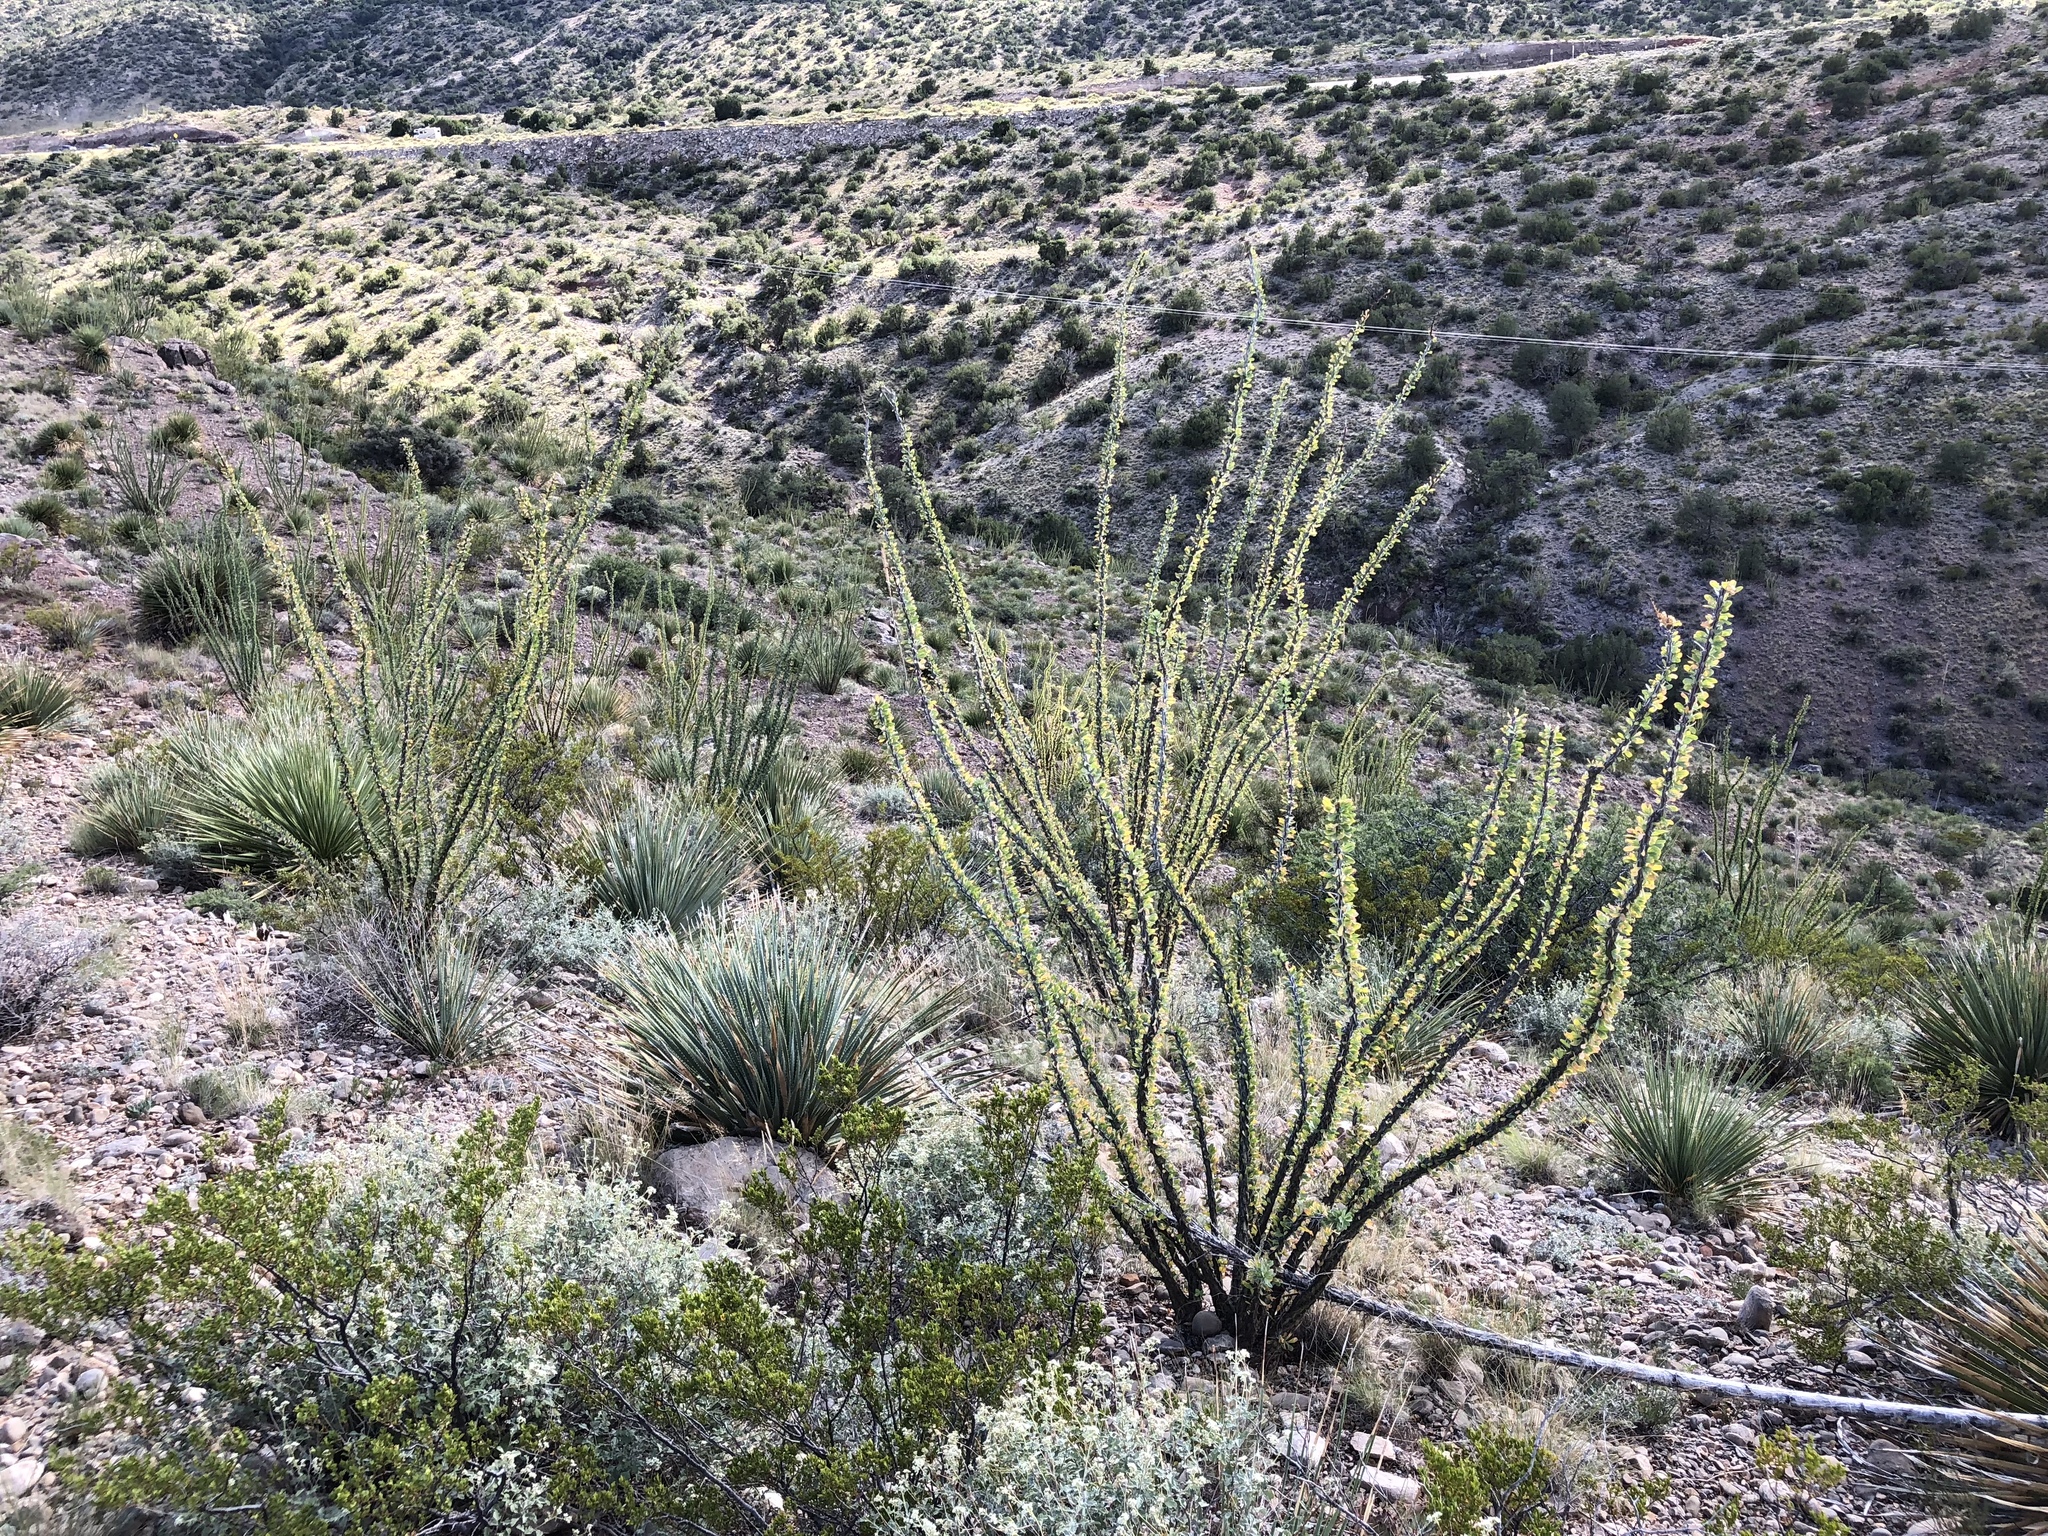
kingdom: Plantae
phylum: Tracheophyta
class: Magnoliopsida
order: Ericales
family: Fouquieriaceae
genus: Fouquieria
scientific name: Fouquieria splendens
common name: Vine-cactus
